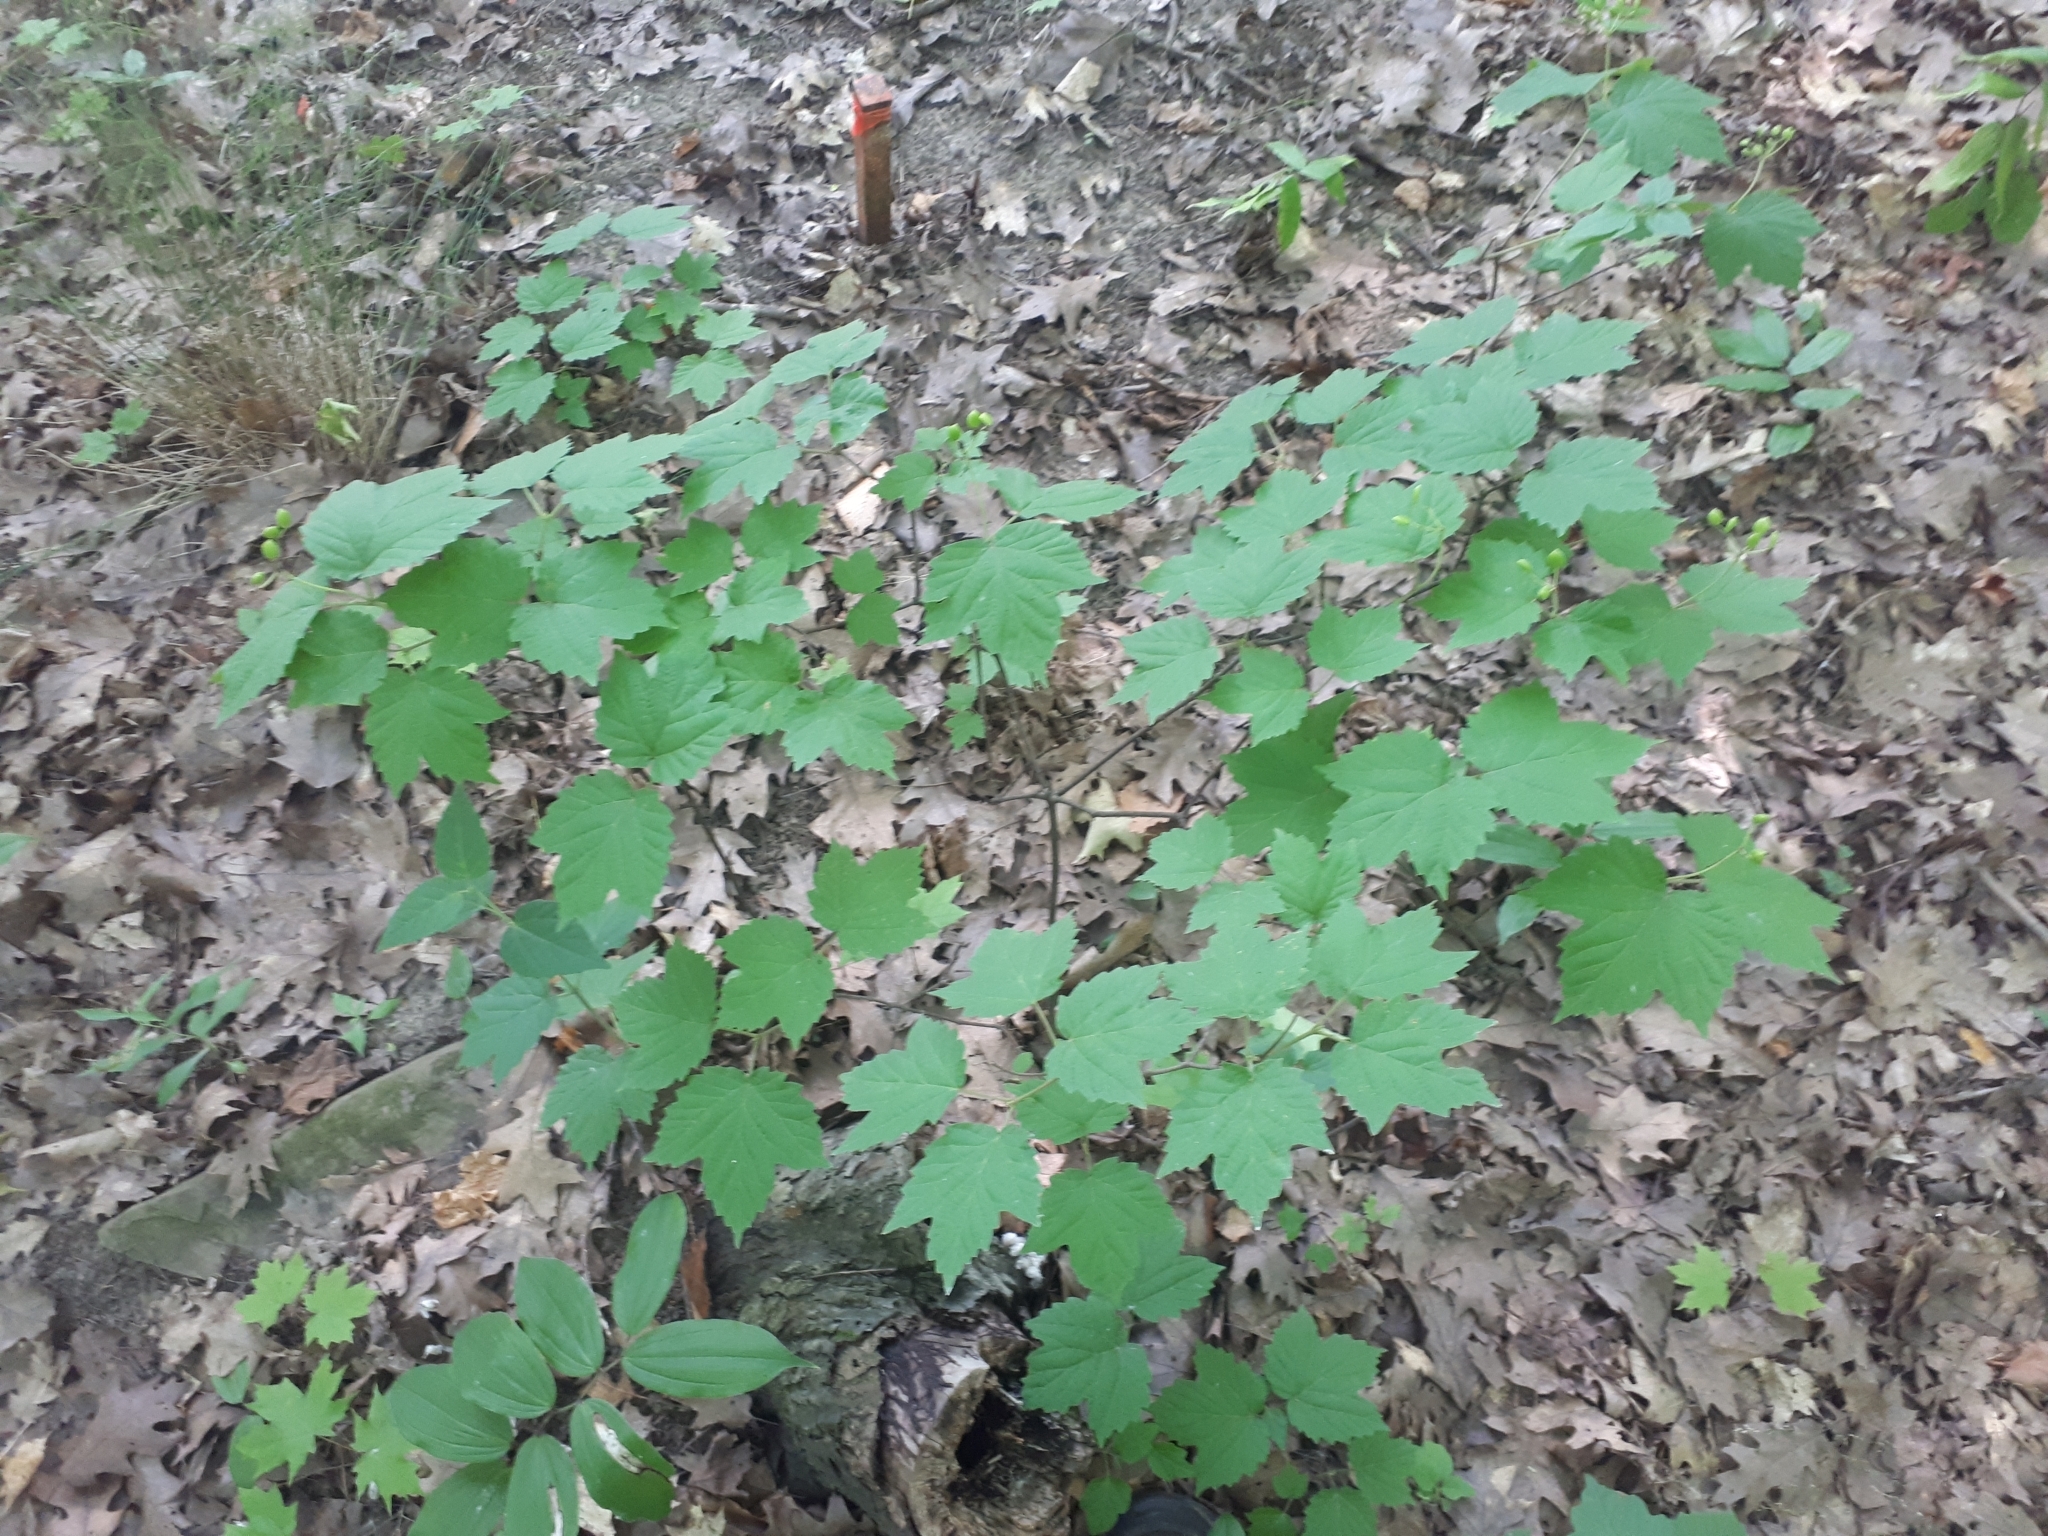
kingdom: Plantae
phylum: Tracheophyta
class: Magnoliopsida
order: Dipsacales
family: Viburnaceae
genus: Viburnum
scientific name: Viburnum acerifolium
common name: Dockmackie
